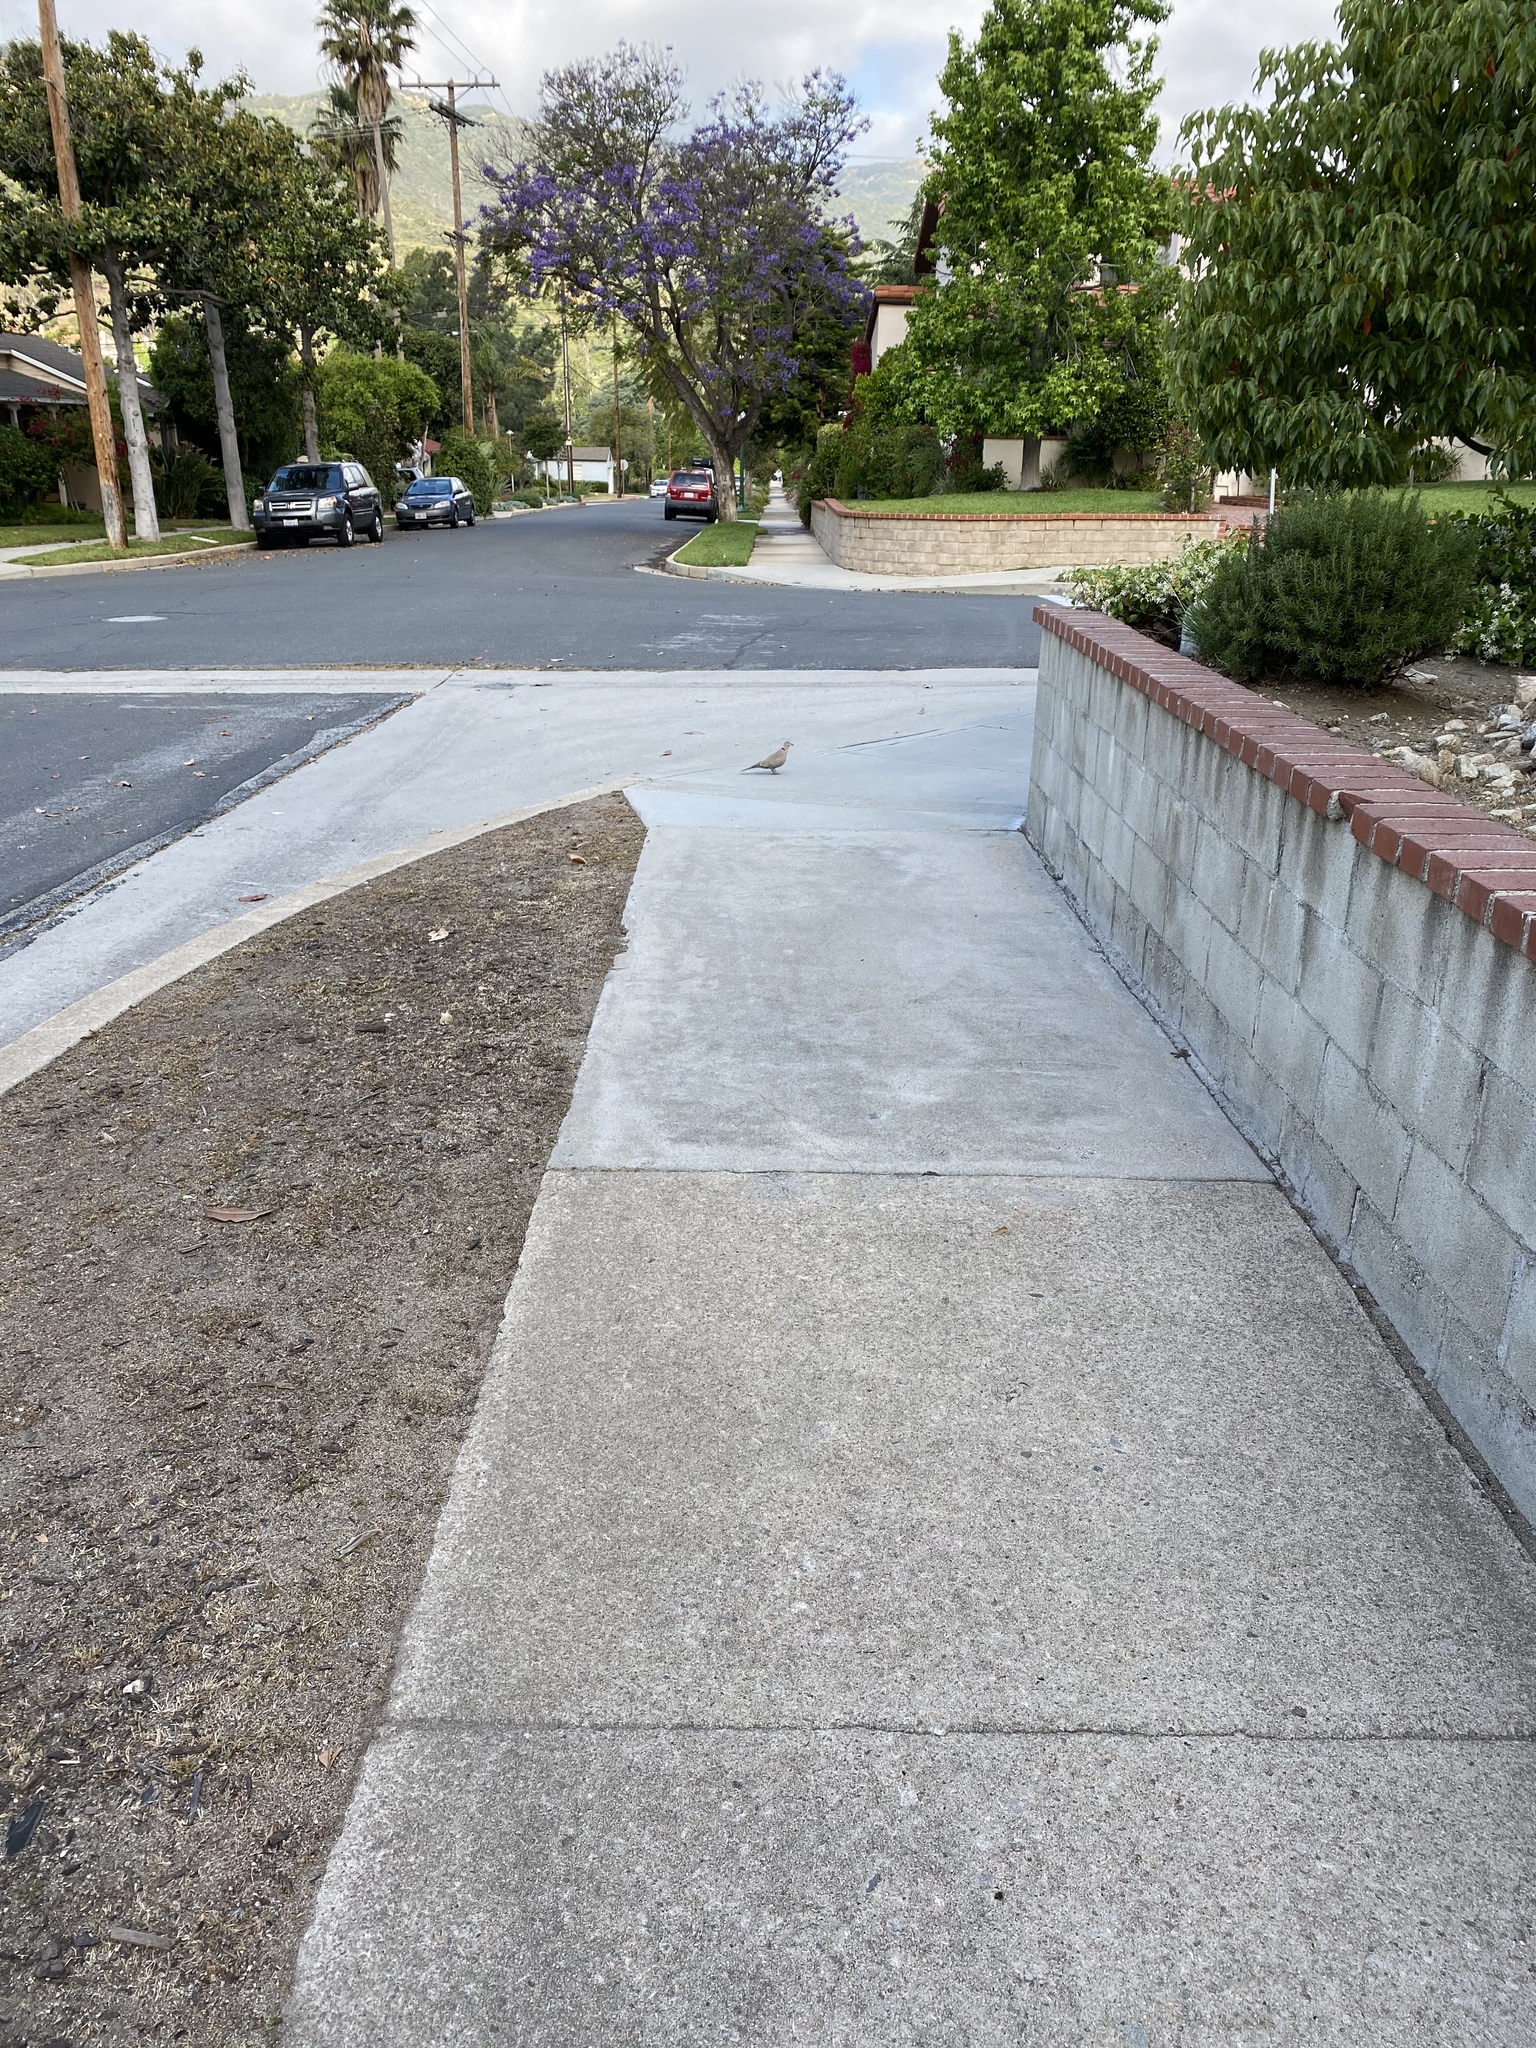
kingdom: Animalia
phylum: Chordata
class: Aves
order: Columbiformes
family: Columbidae
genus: Streptopelia
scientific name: Streptopelia decaocto
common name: Eurasian collared dove
